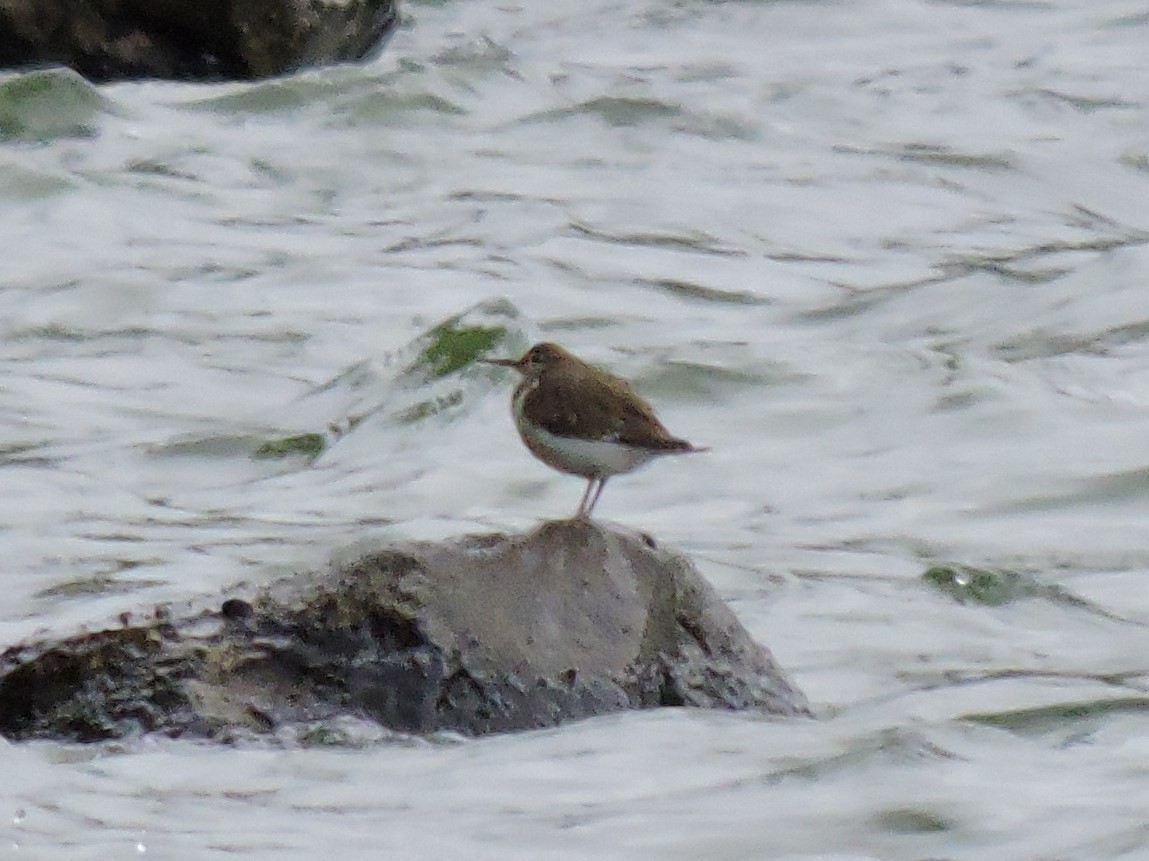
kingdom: Animalia
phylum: Chordata
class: Aves
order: Charadriiformes
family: Scolopacidae
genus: Actitis
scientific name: Actitis hypoleucos
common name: Common sandpiper
